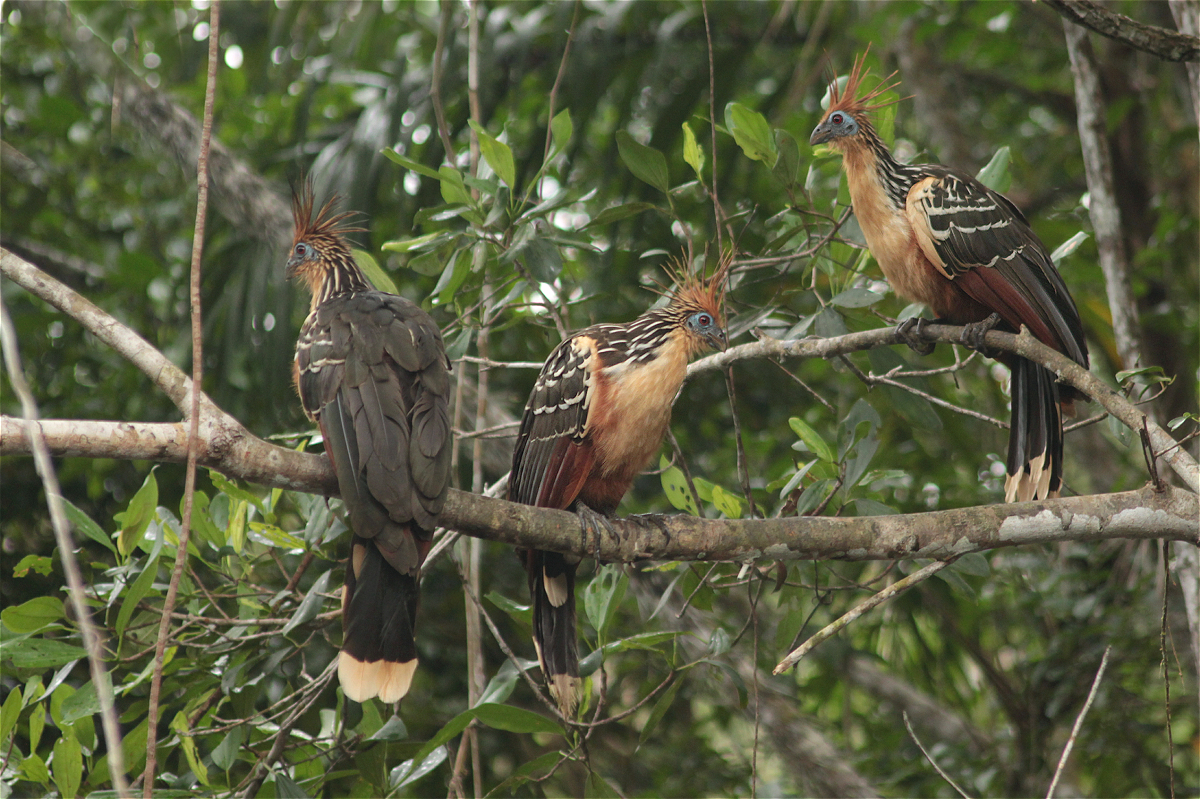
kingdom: Animalia
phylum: Chordata
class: Aves
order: Opisthocomiformes
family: Opisthocomidae
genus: Opisthocomus
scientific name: Opisthocomus hoazin
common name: Hoatzin
